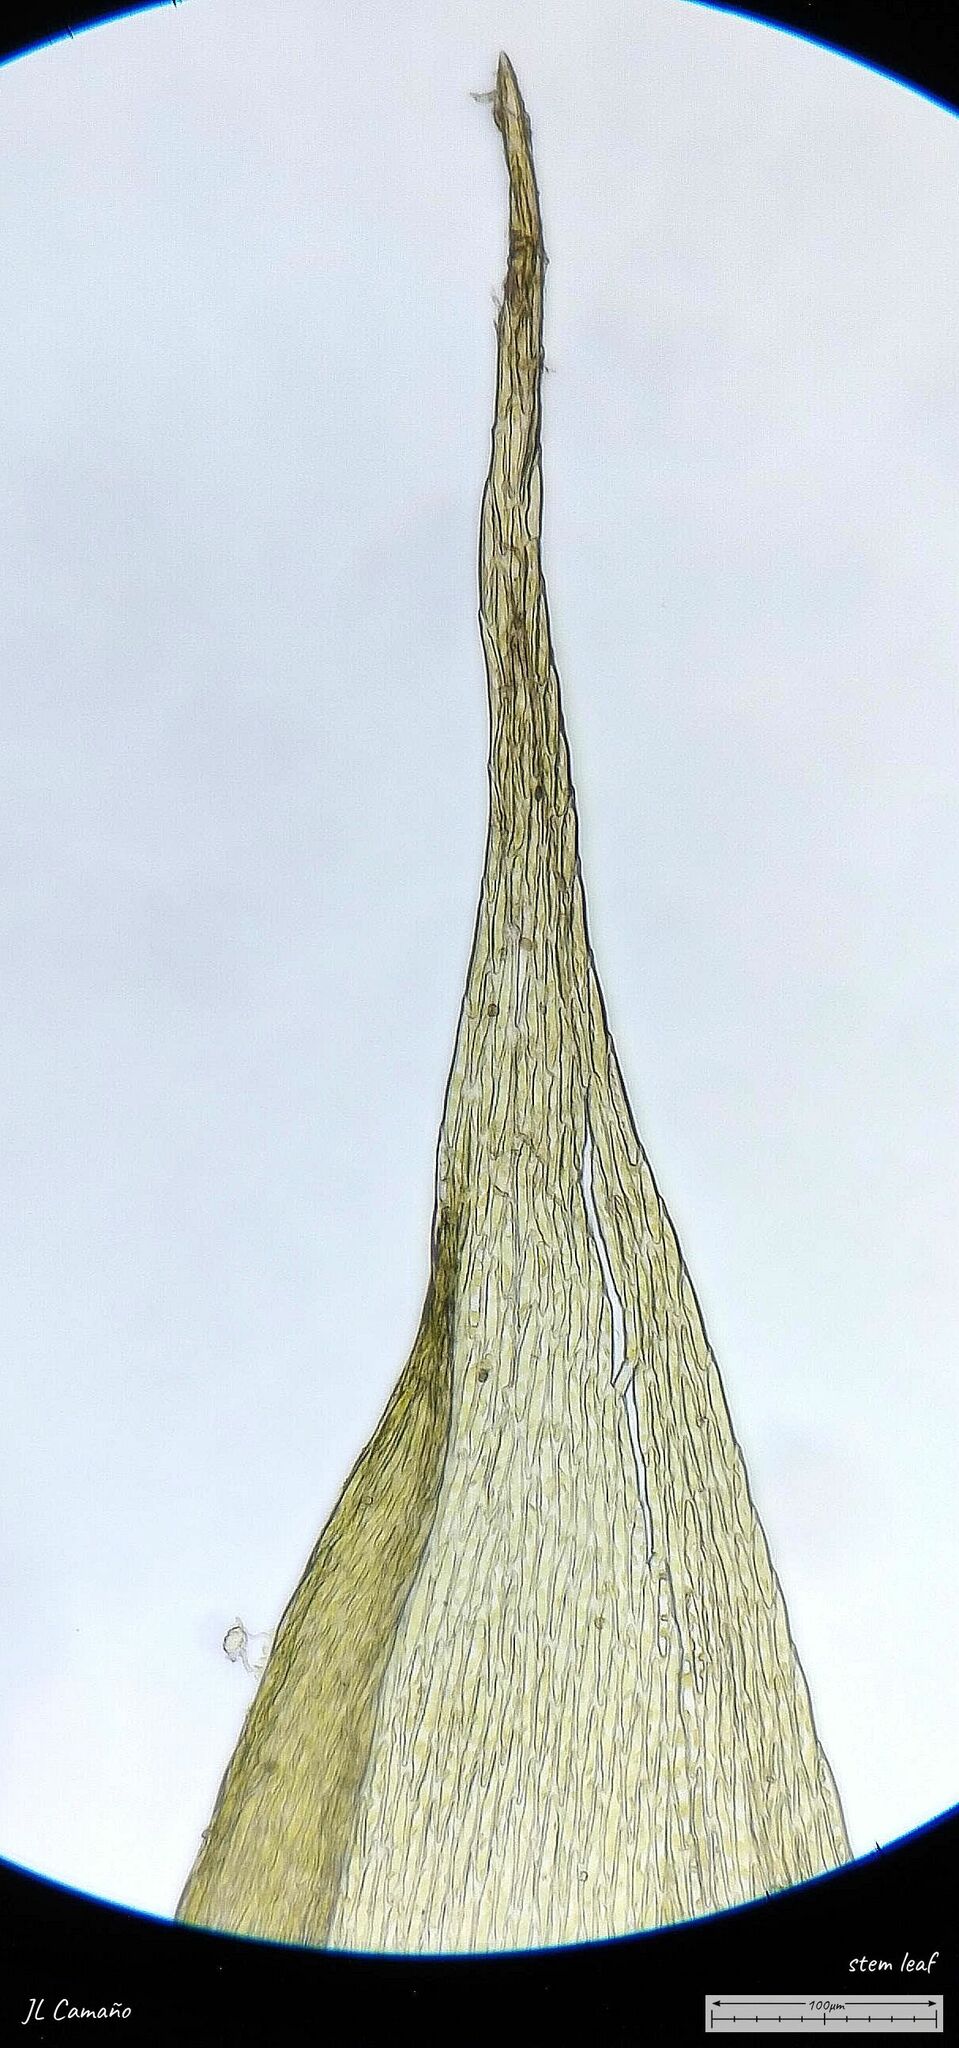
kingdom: Plantae
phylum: Bryophyta
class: Bryopsida
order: Hypnales
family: Sematophyllaceae
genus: Sematophyllum
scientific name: Sematophyllum substrumulosum
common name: Bark signal-moss
